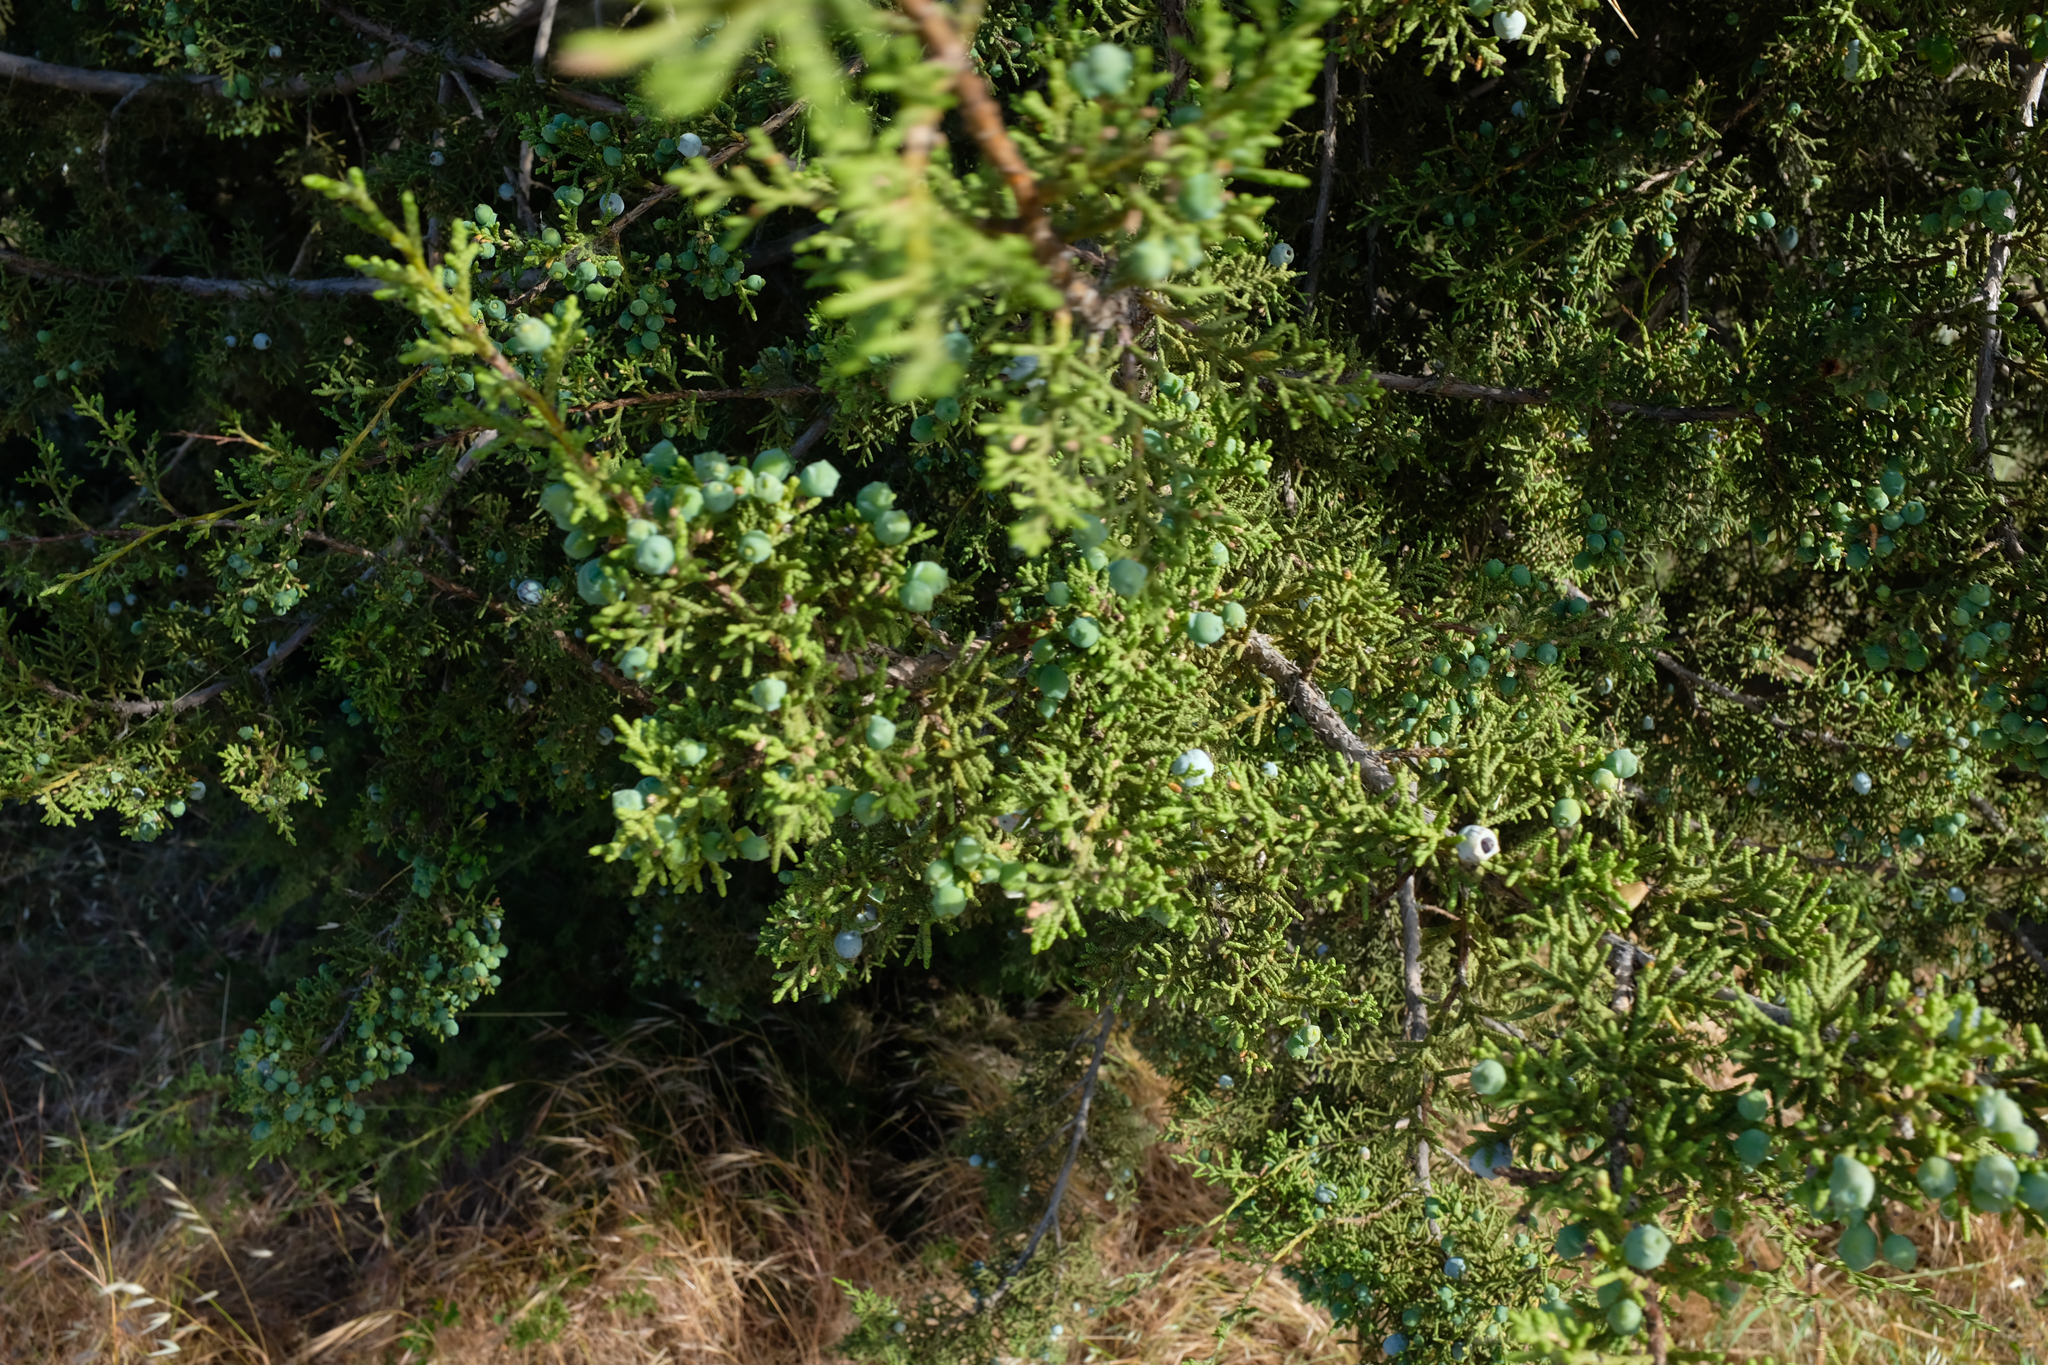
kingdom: Plantae
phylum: Tracheophyta
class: Pinopsida
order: Pinales
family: Cupressaceae
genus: Juniperus
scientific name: Juniperus californica
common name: California juniper
